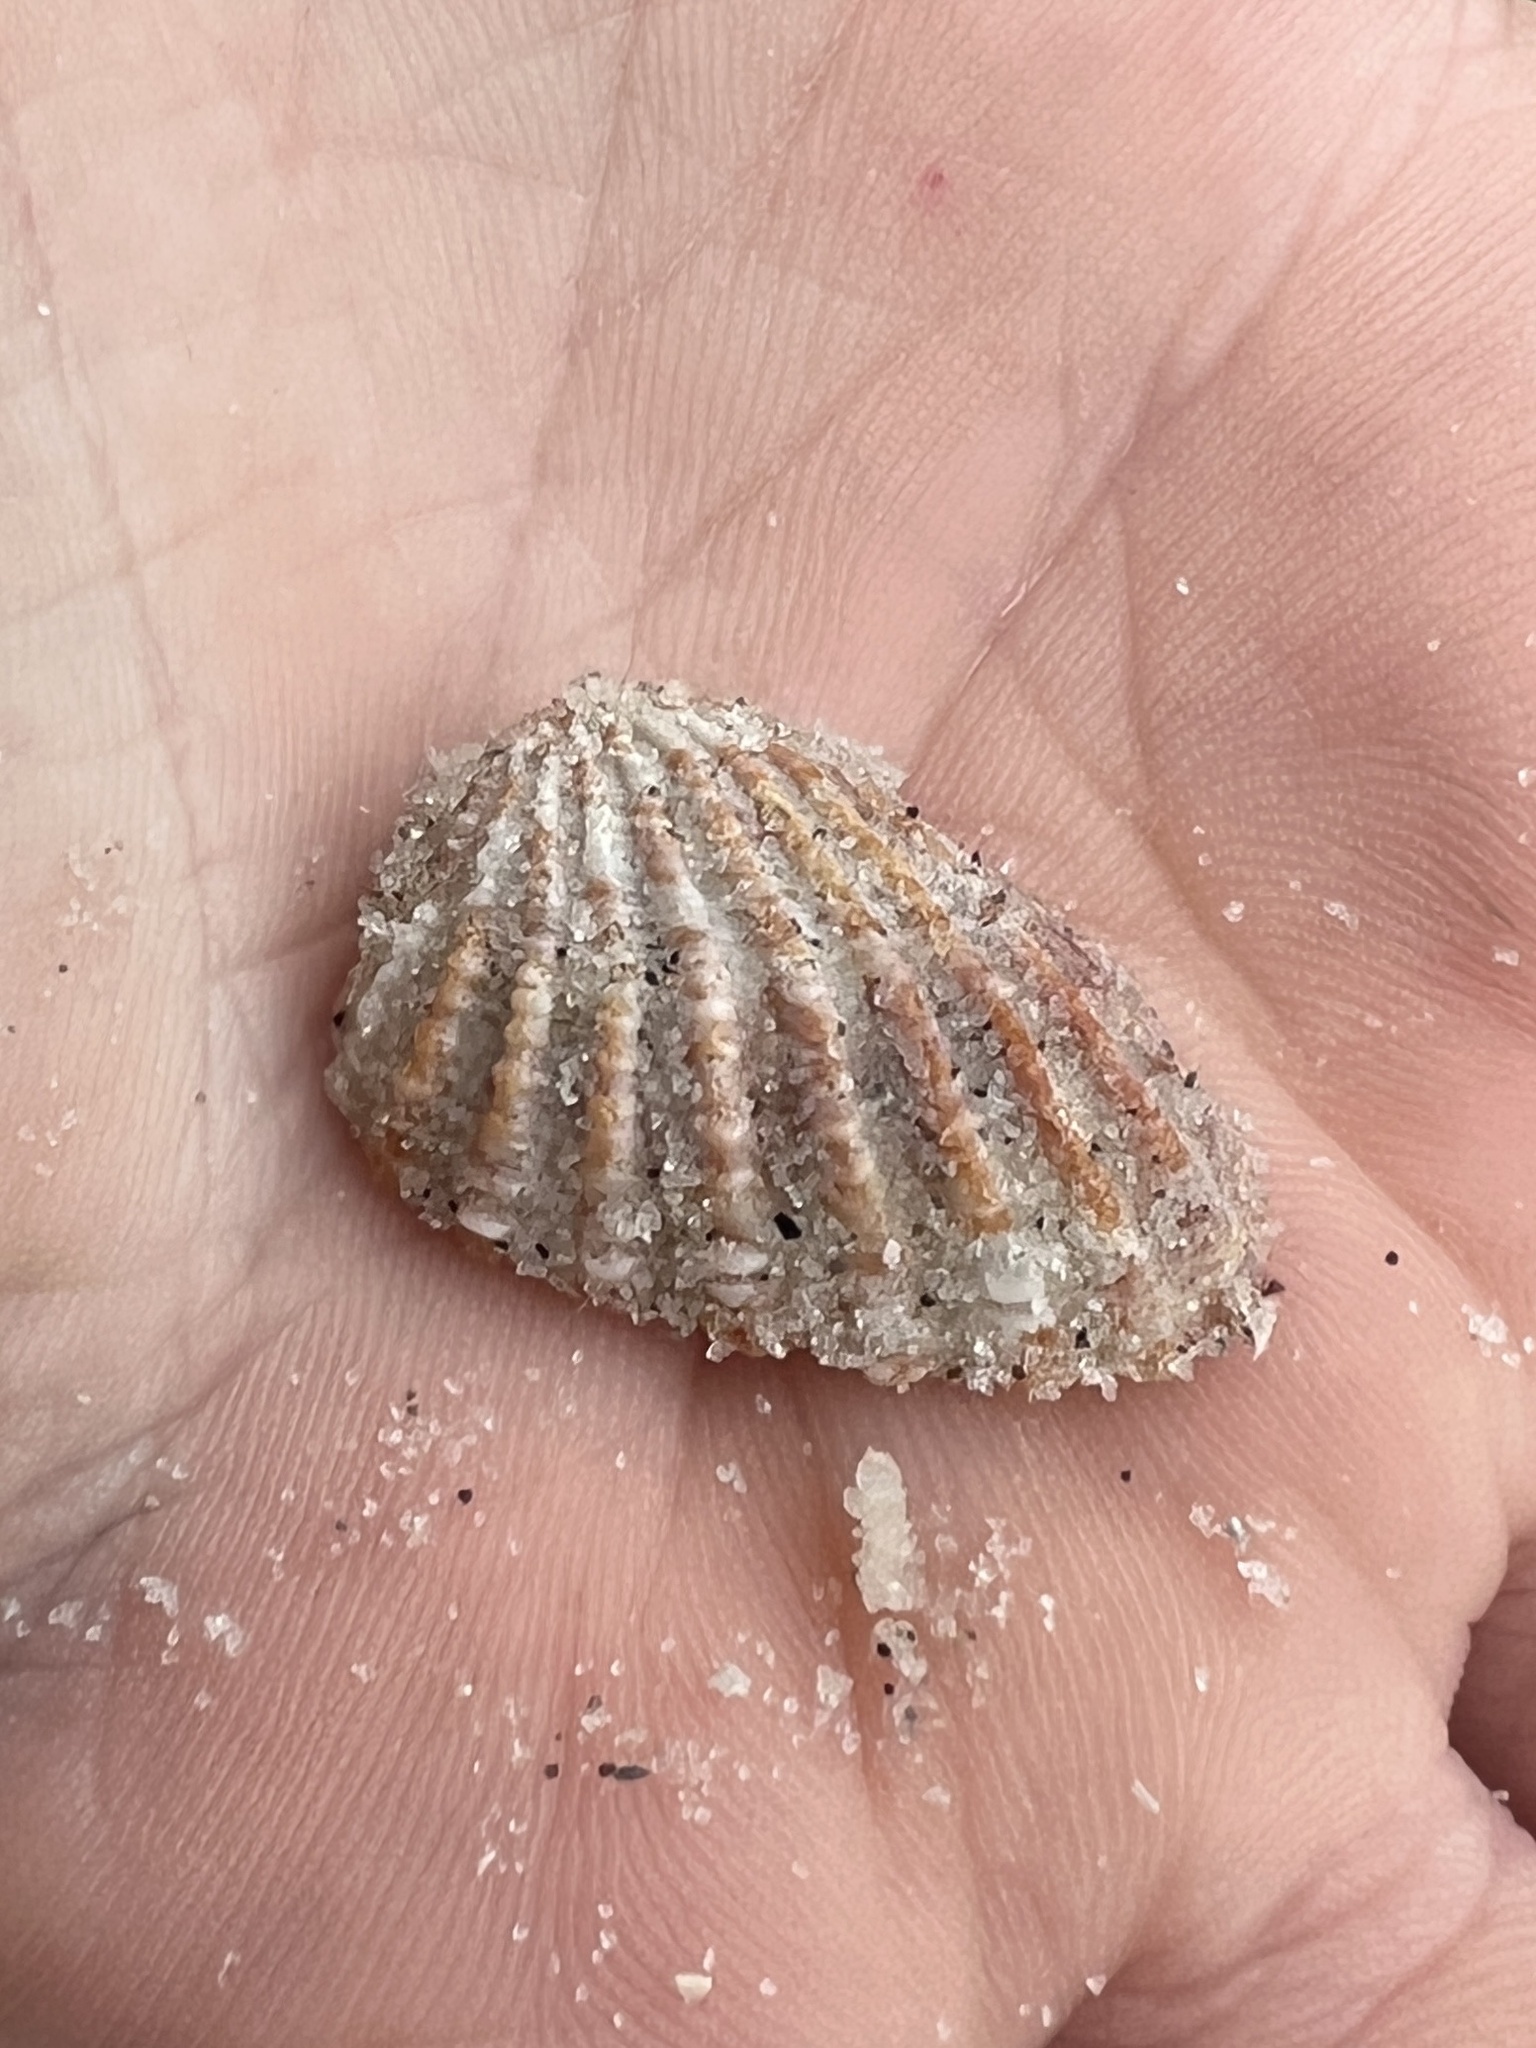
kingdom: Animalia
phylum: Mollusca
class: Bivalvia
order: Carditida
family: Carditidae
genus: Cardites
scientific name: Cardites floridanus
